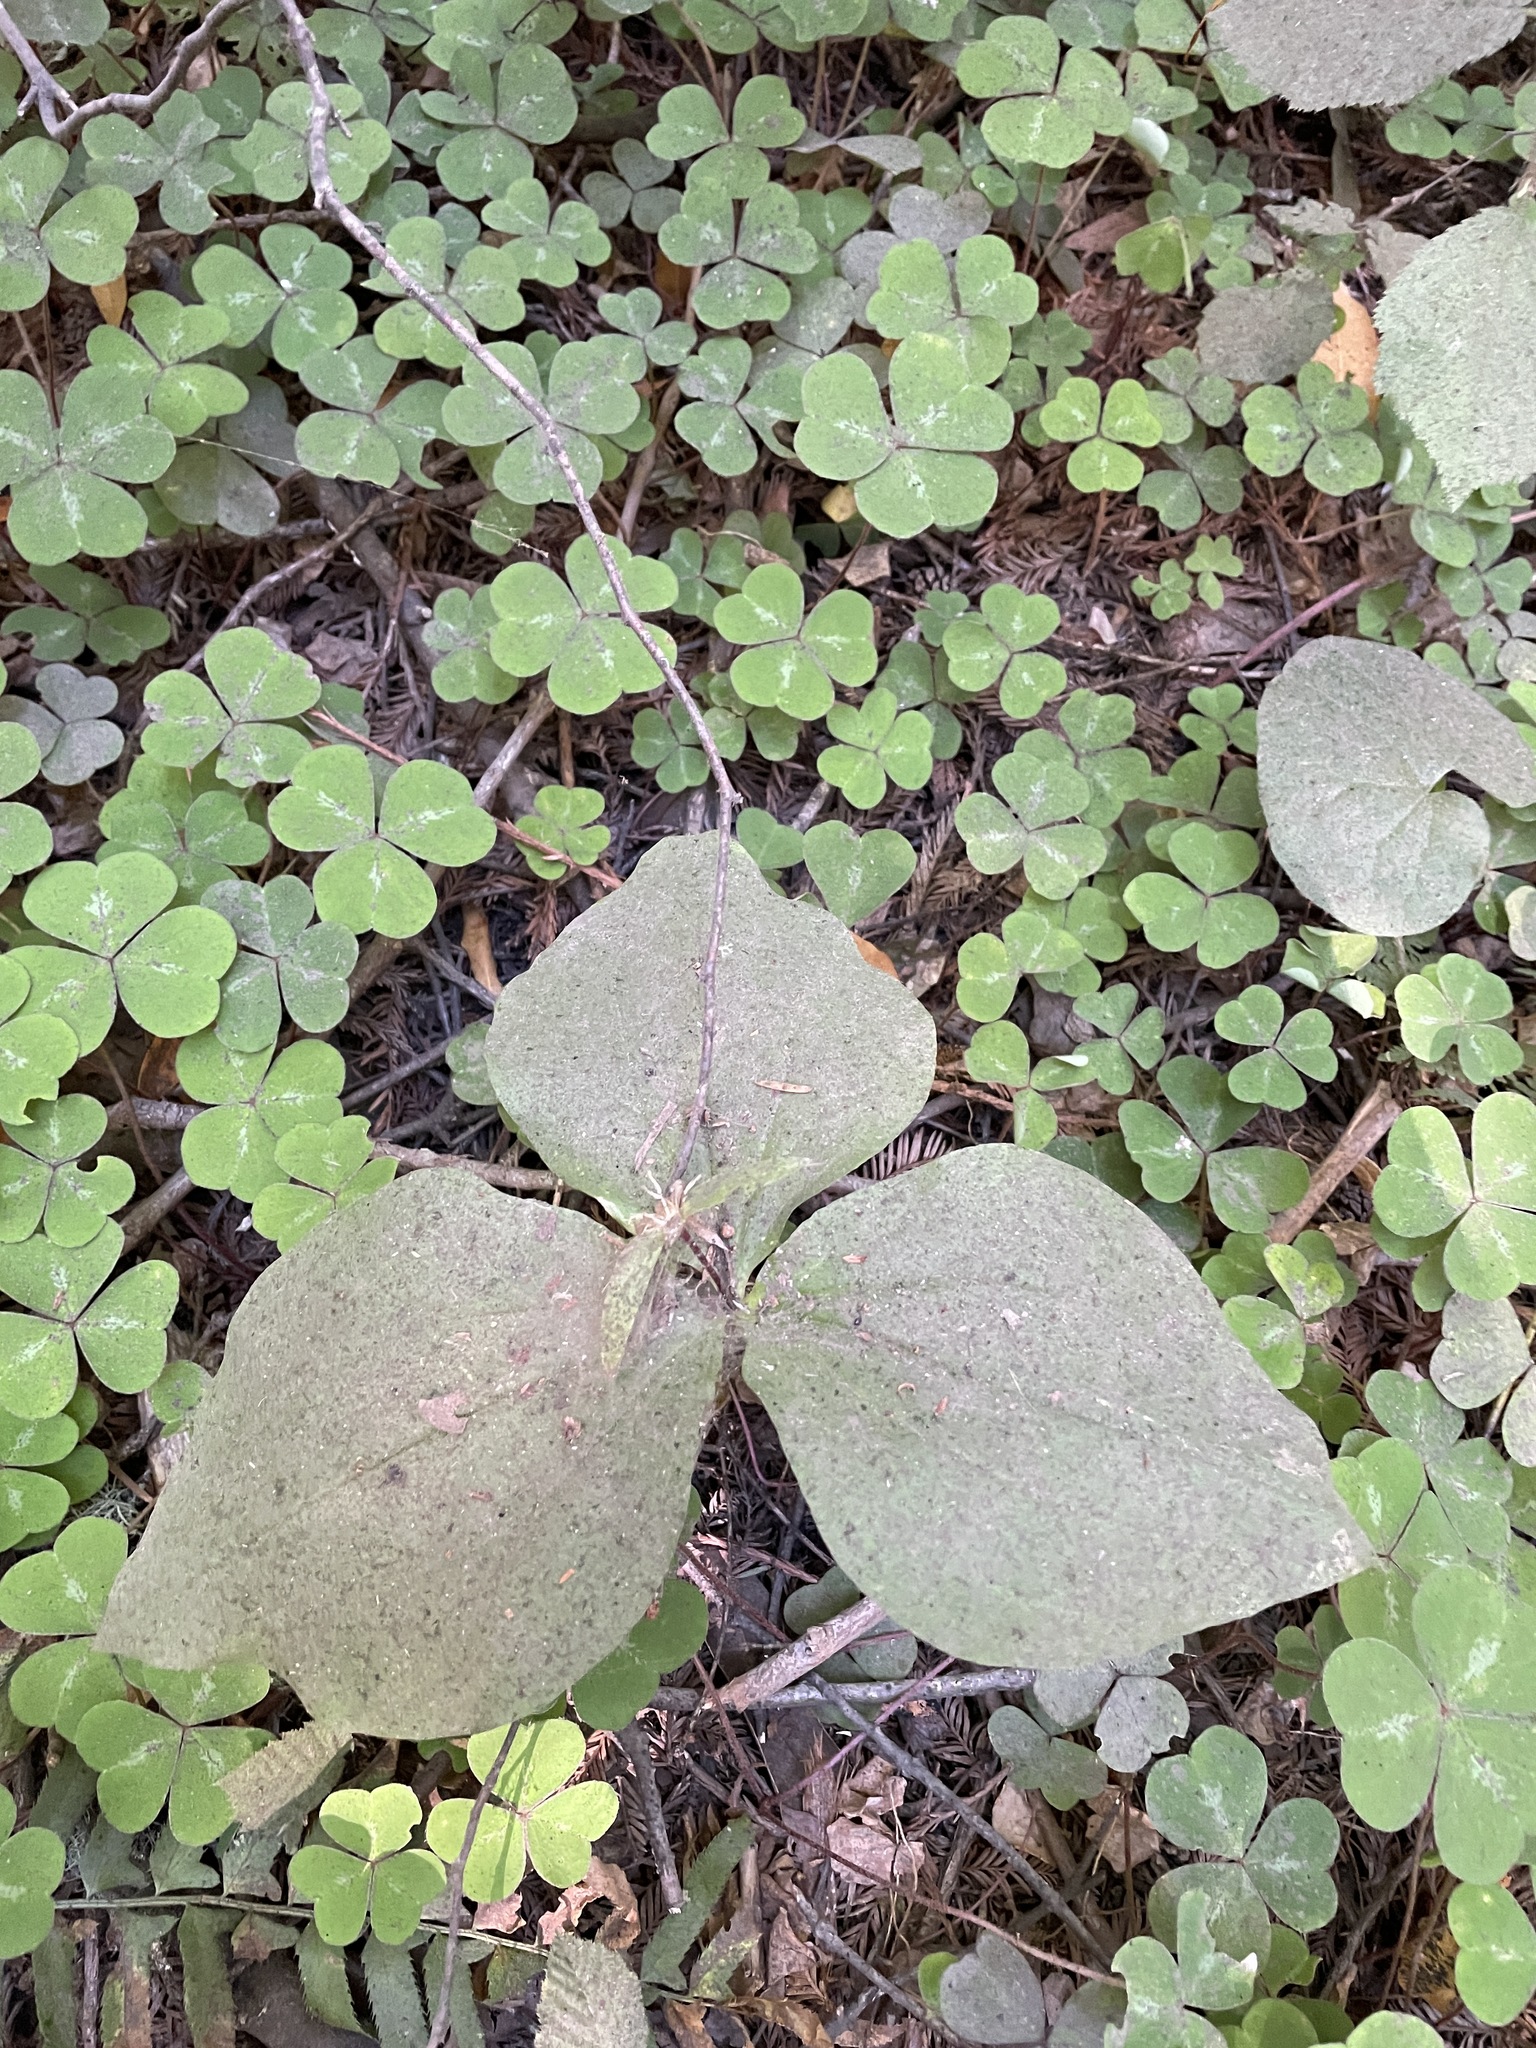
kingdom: Plantae
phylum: Tracheophyta
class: Liliopsida
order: Liliales
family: Melanthiaceae
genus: Trillium
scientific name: Trillium ovatum
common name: Pacific trillium
